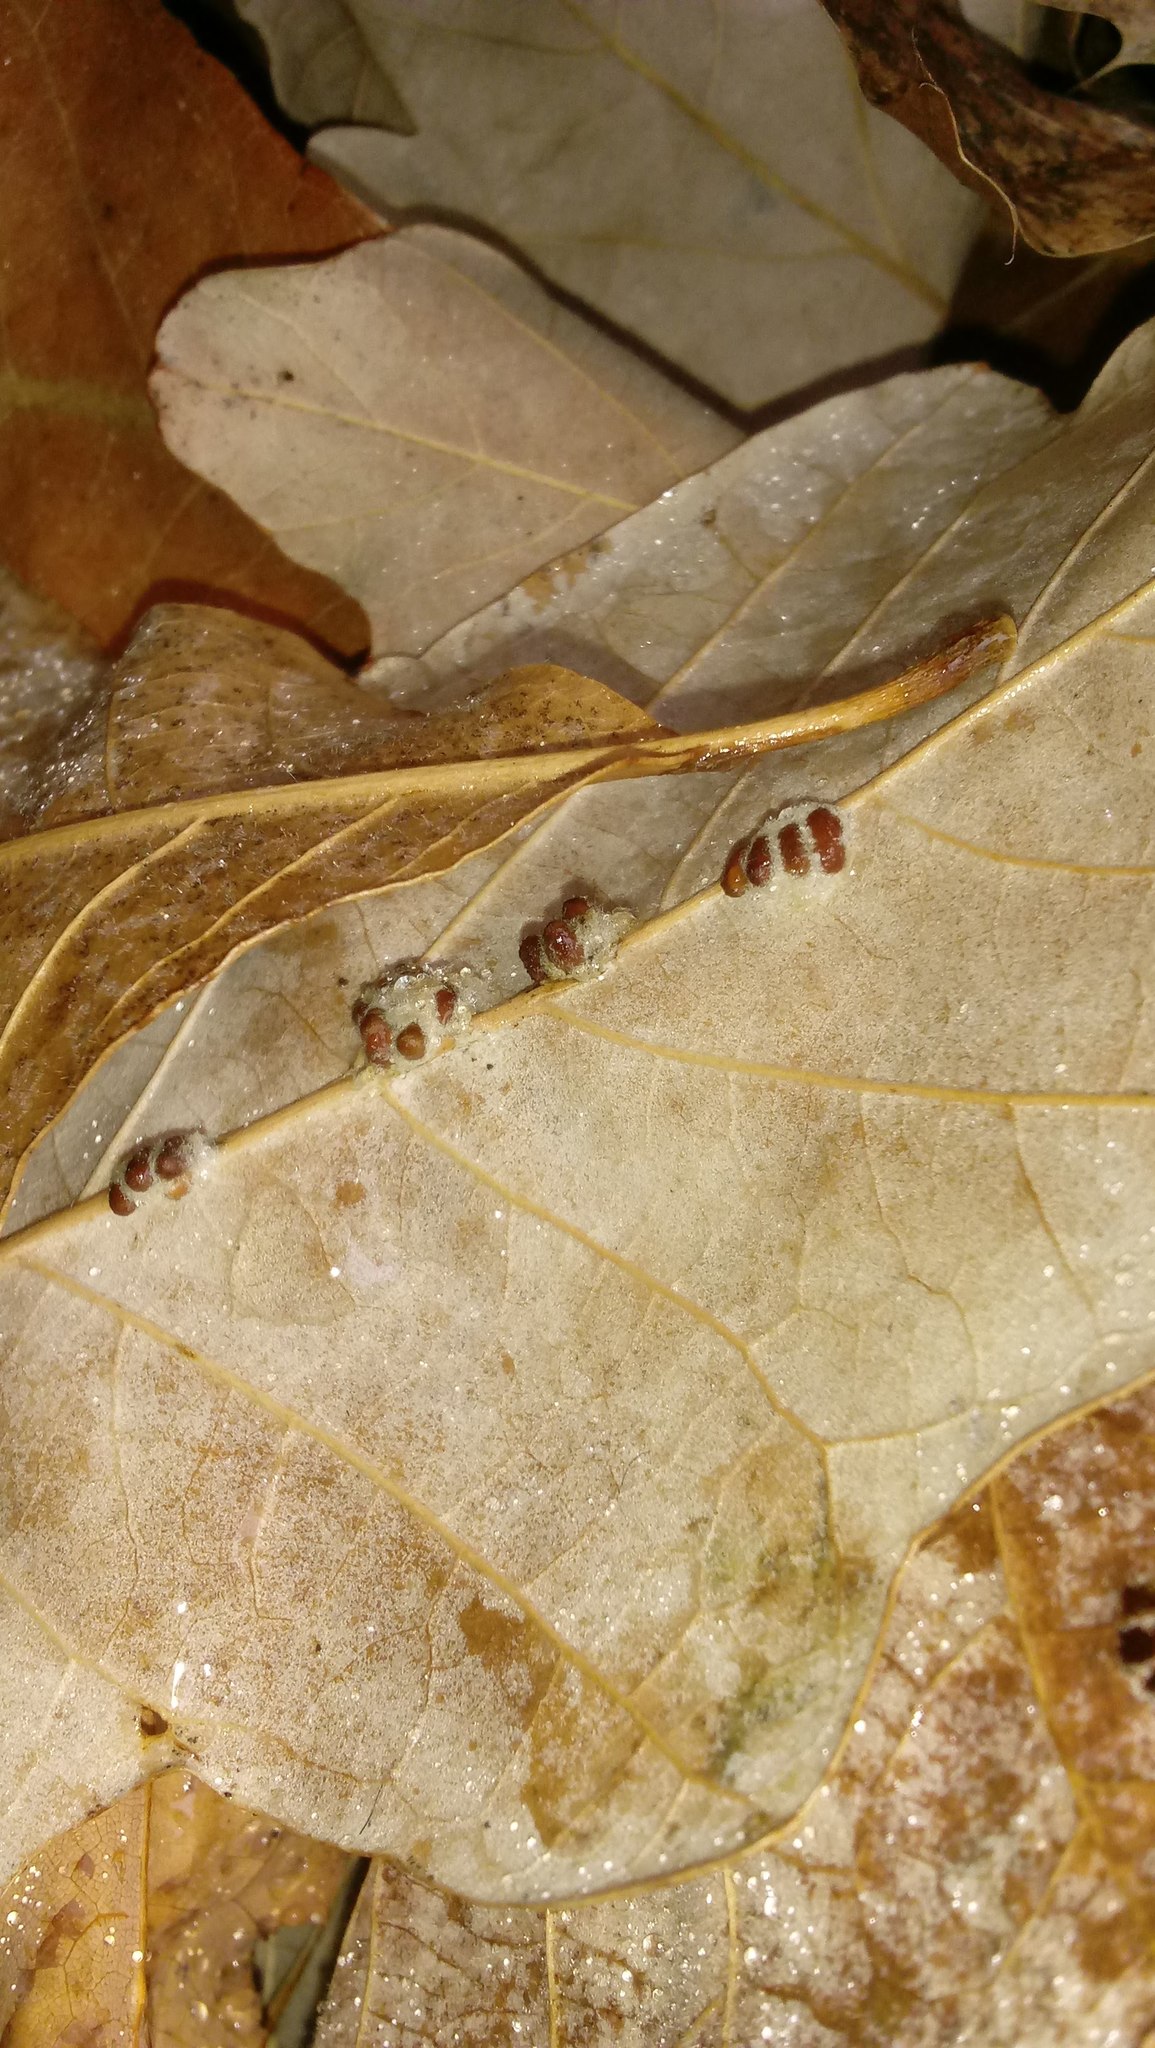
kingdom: Animalia
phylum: Arthropoda
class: Insecta
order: Hymenoptera
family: Cynipidae
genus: Andricus
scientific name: Andricus Druon ignotum
